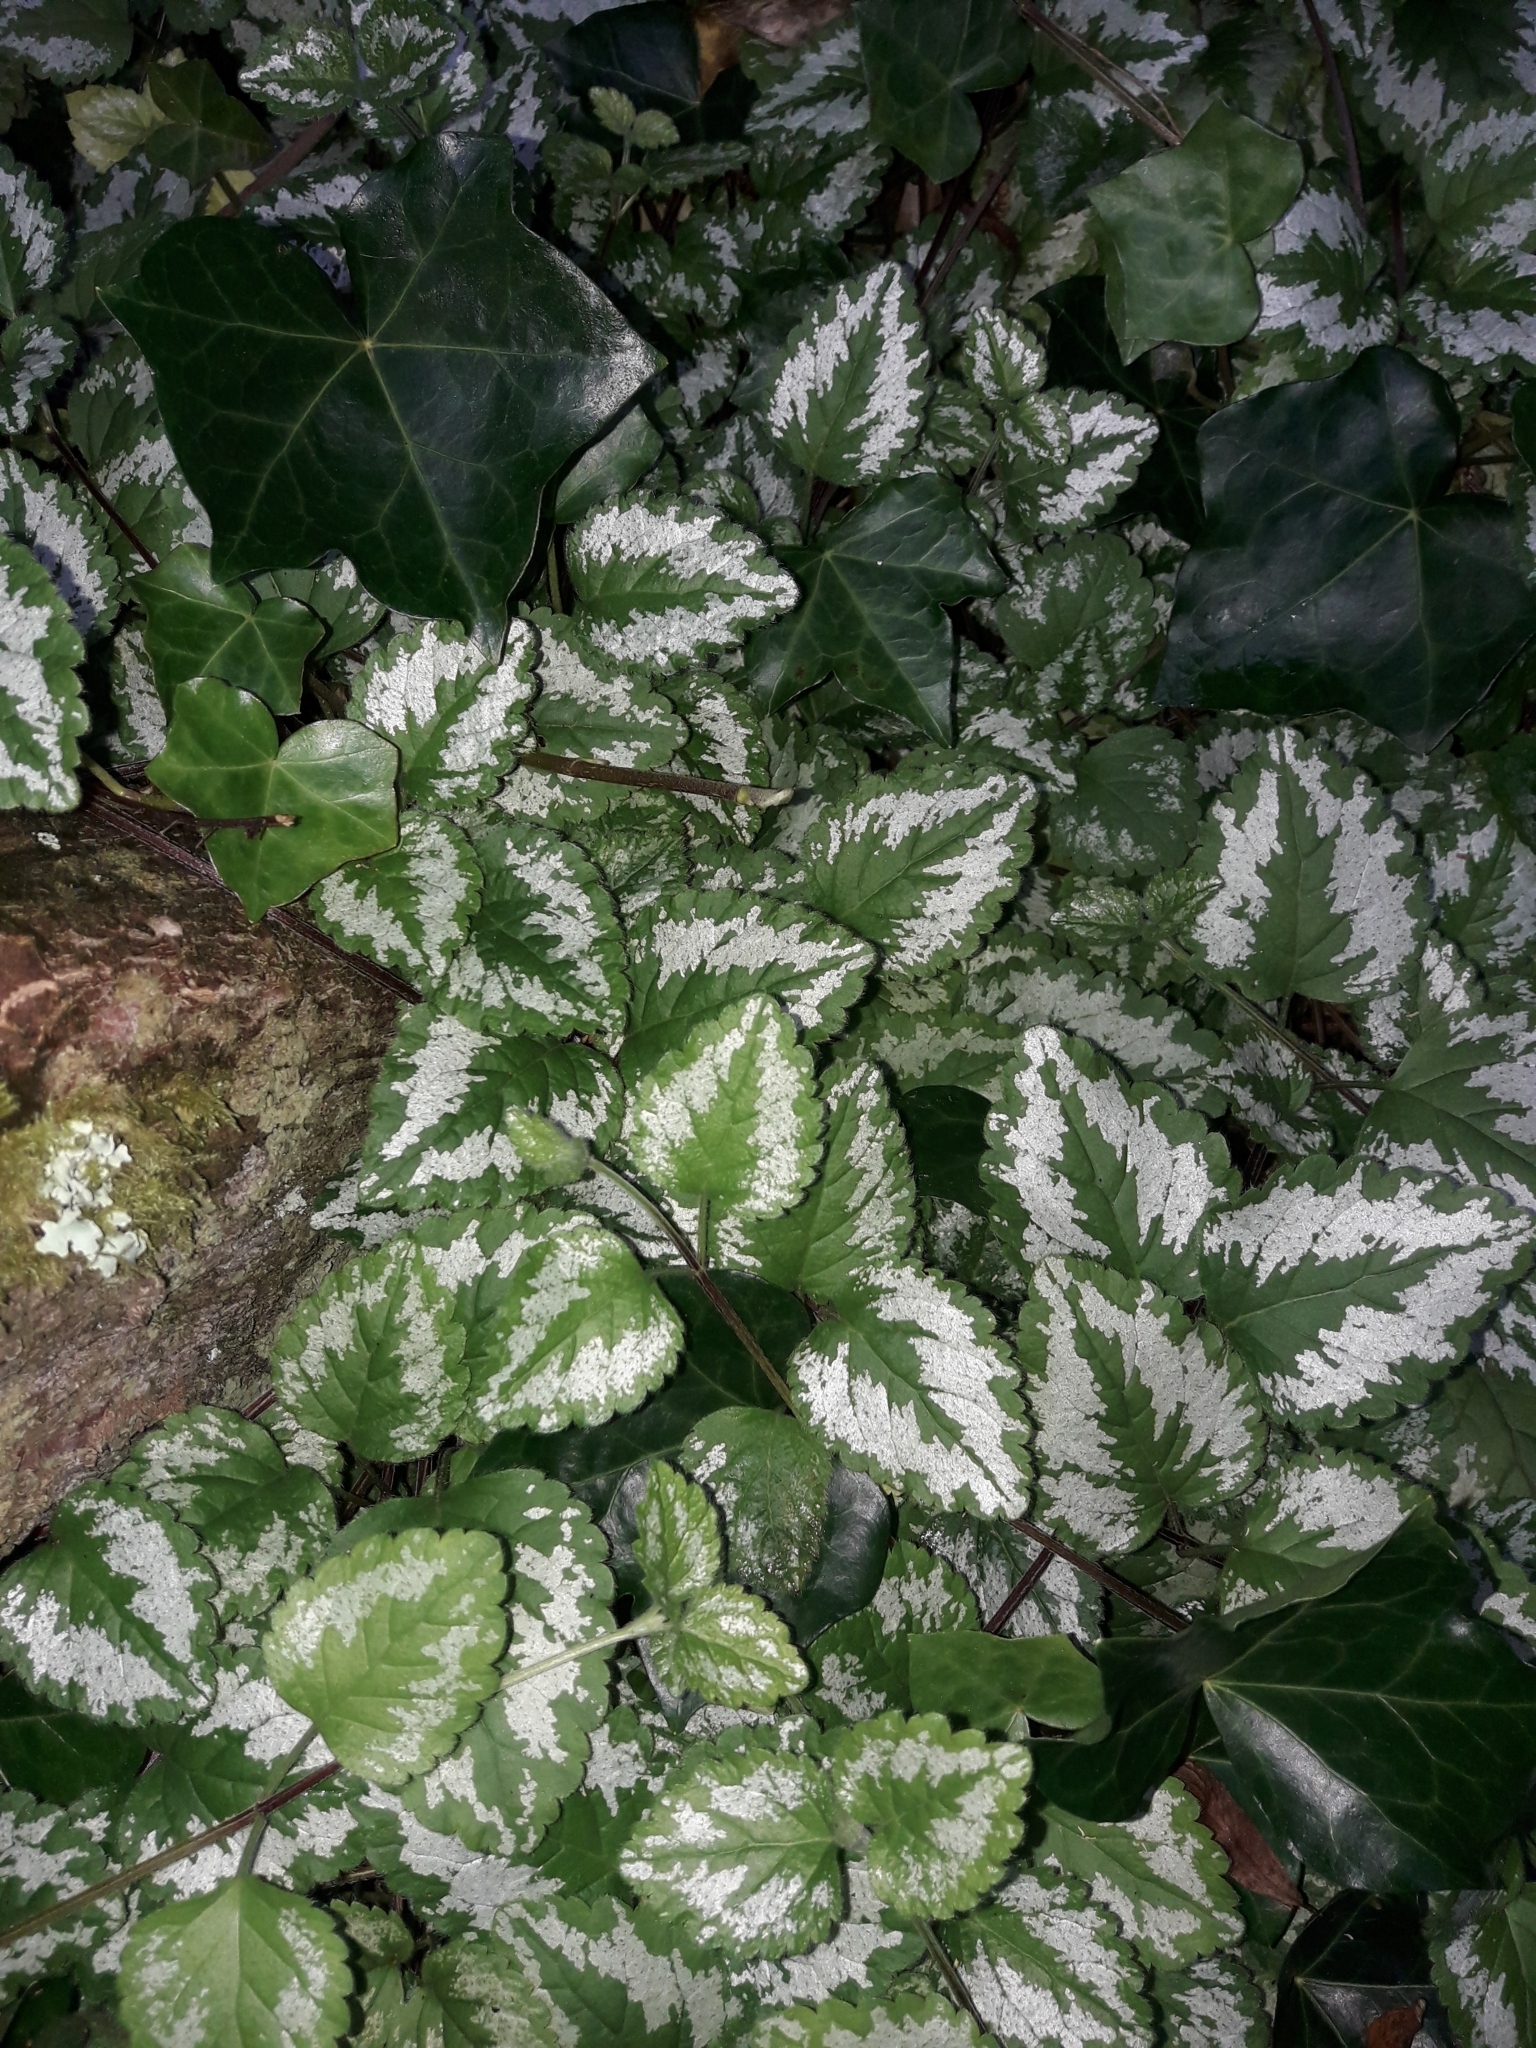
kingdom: Plantae
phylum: Tracheophyta
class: Magnoliopsida
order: Lamiales
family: Lamiaceae
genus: Lamium
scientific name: Lamium galeobdolon
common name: Yellow archangel
